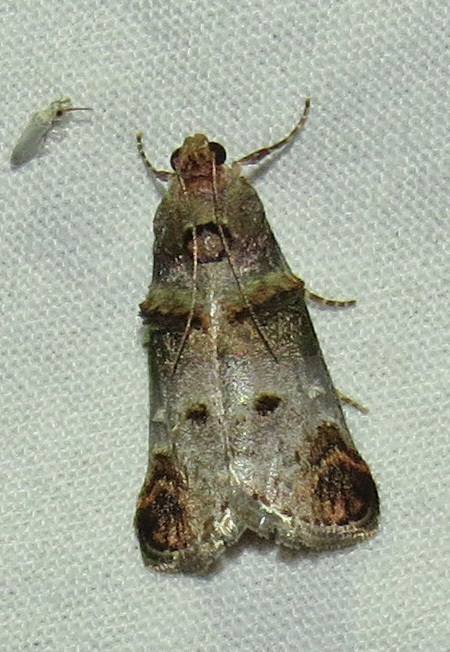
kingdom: Animalia
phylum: Arthropoda
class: Insecta
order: Lepidoptera
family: Pyralidae
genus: Oneida
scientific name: Oneida lunulalis
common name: Orange-tufted oneida moth
